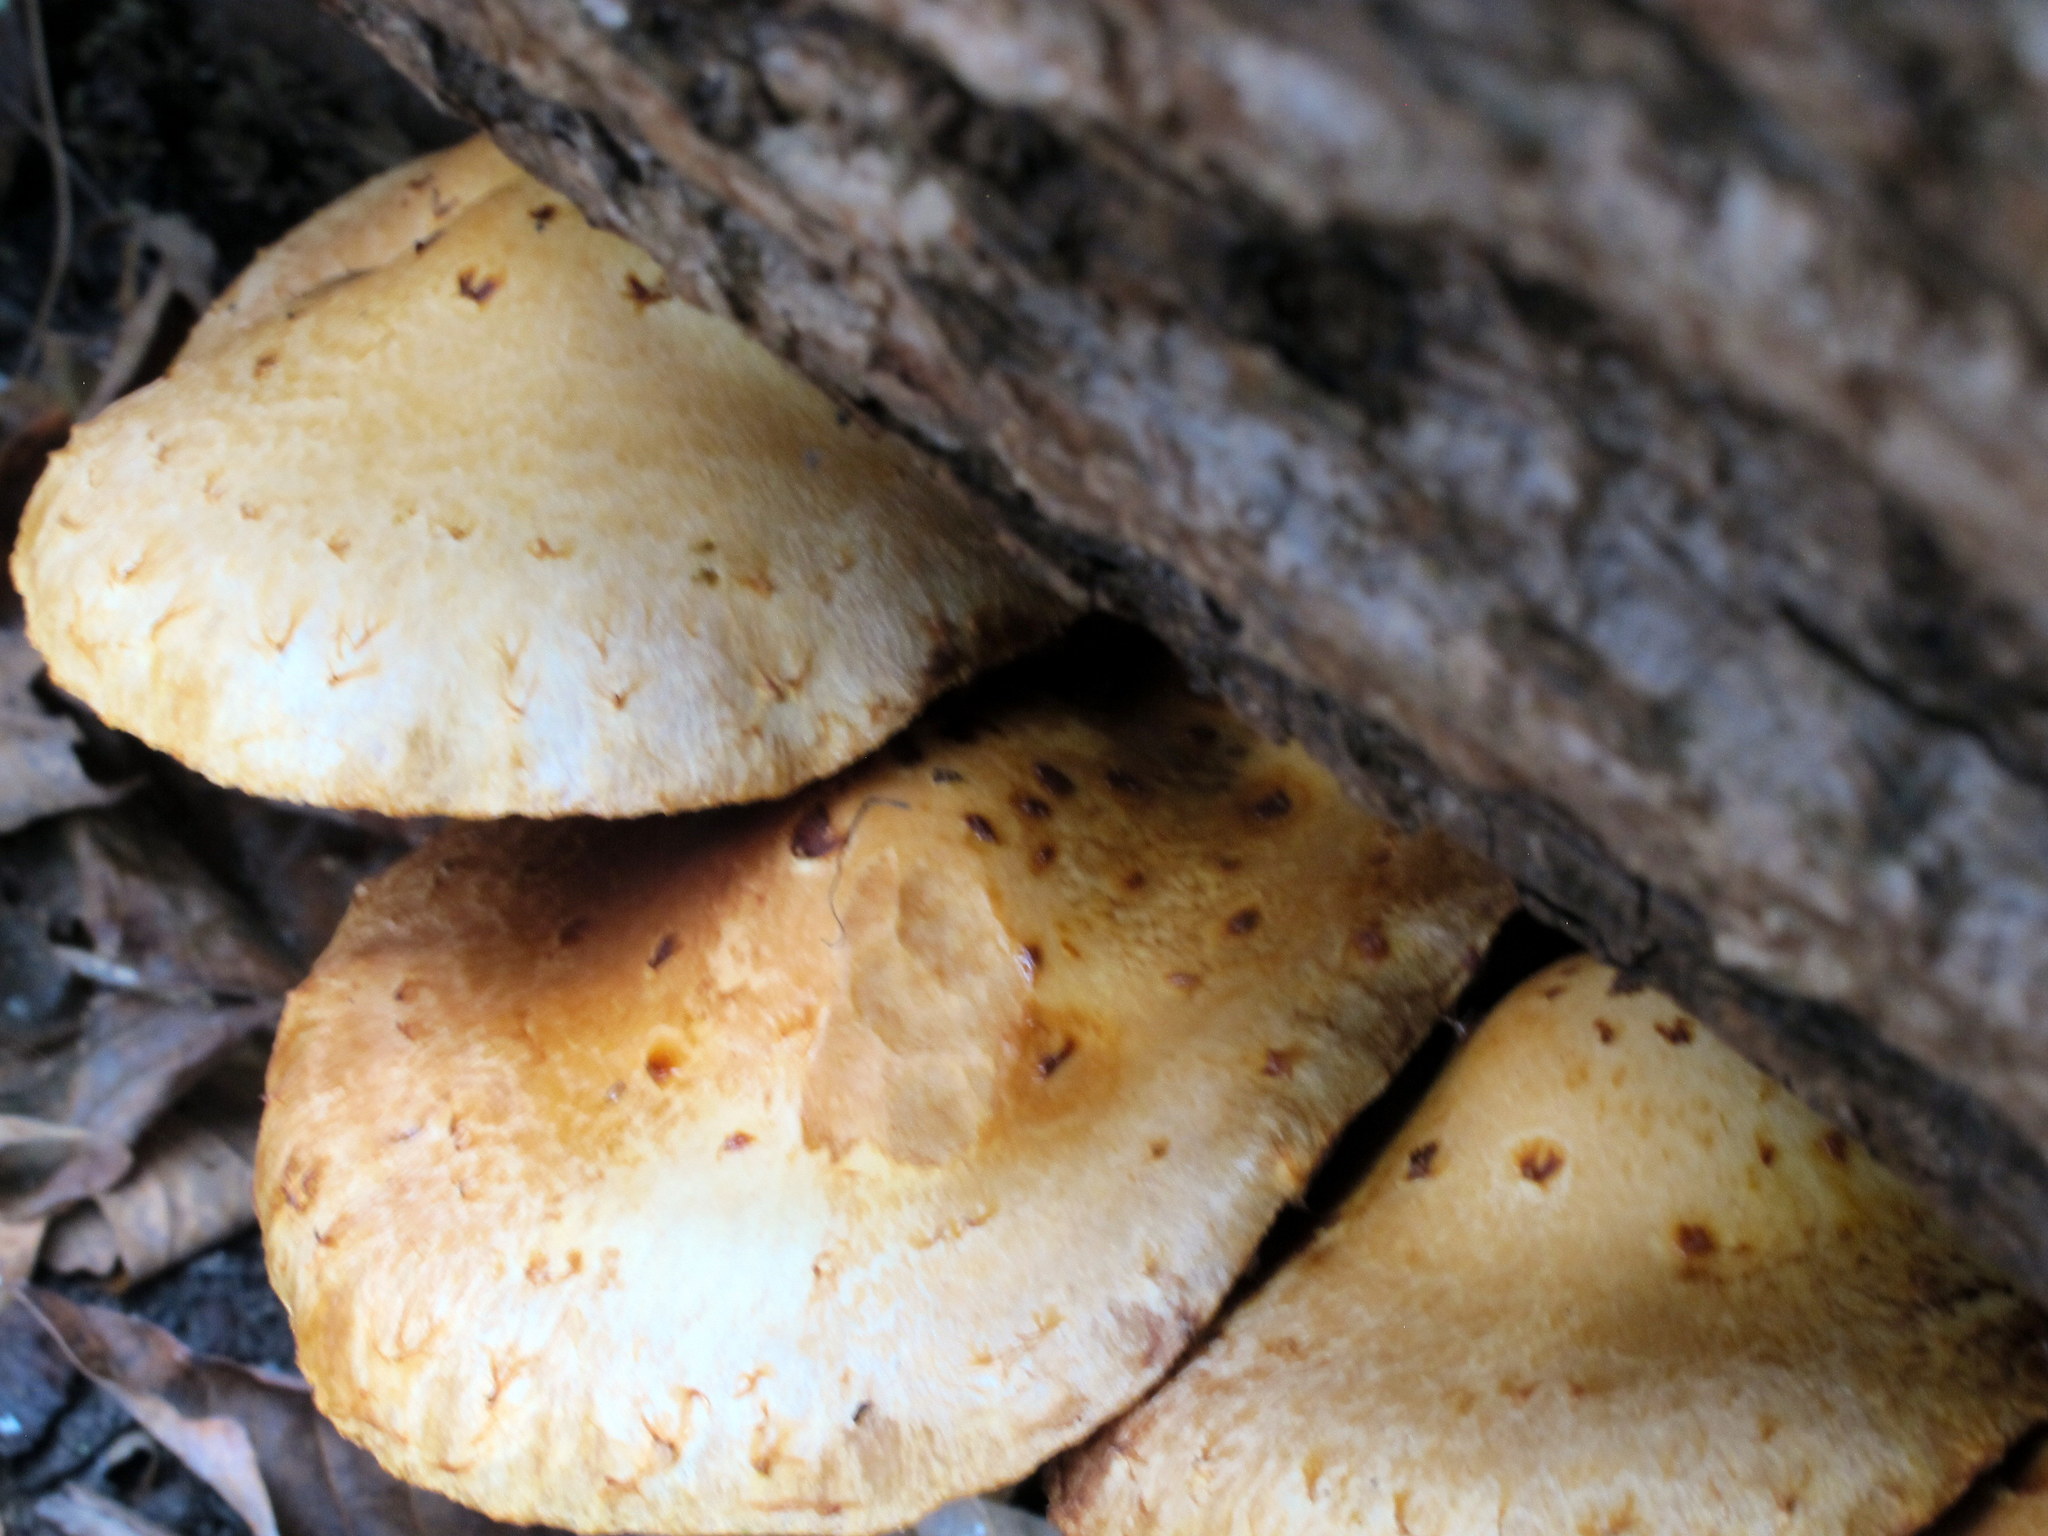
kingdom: Fungi
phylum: Basidiomycota
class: Agaricomycetes
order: Agaricales
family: Strophariaceae
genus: Pholiota
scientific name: Pholiota aurivella
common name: Golden scalycap
